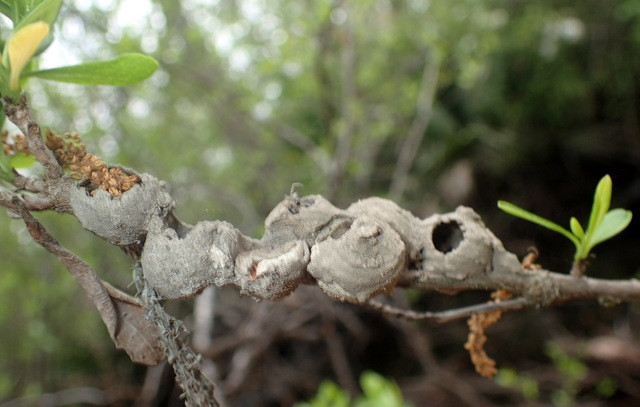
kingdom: Animalia
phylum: Arthropoda
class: Insecta
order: Hymenoptera
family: Vespidae
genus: Eumenes
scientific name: Eumenes
